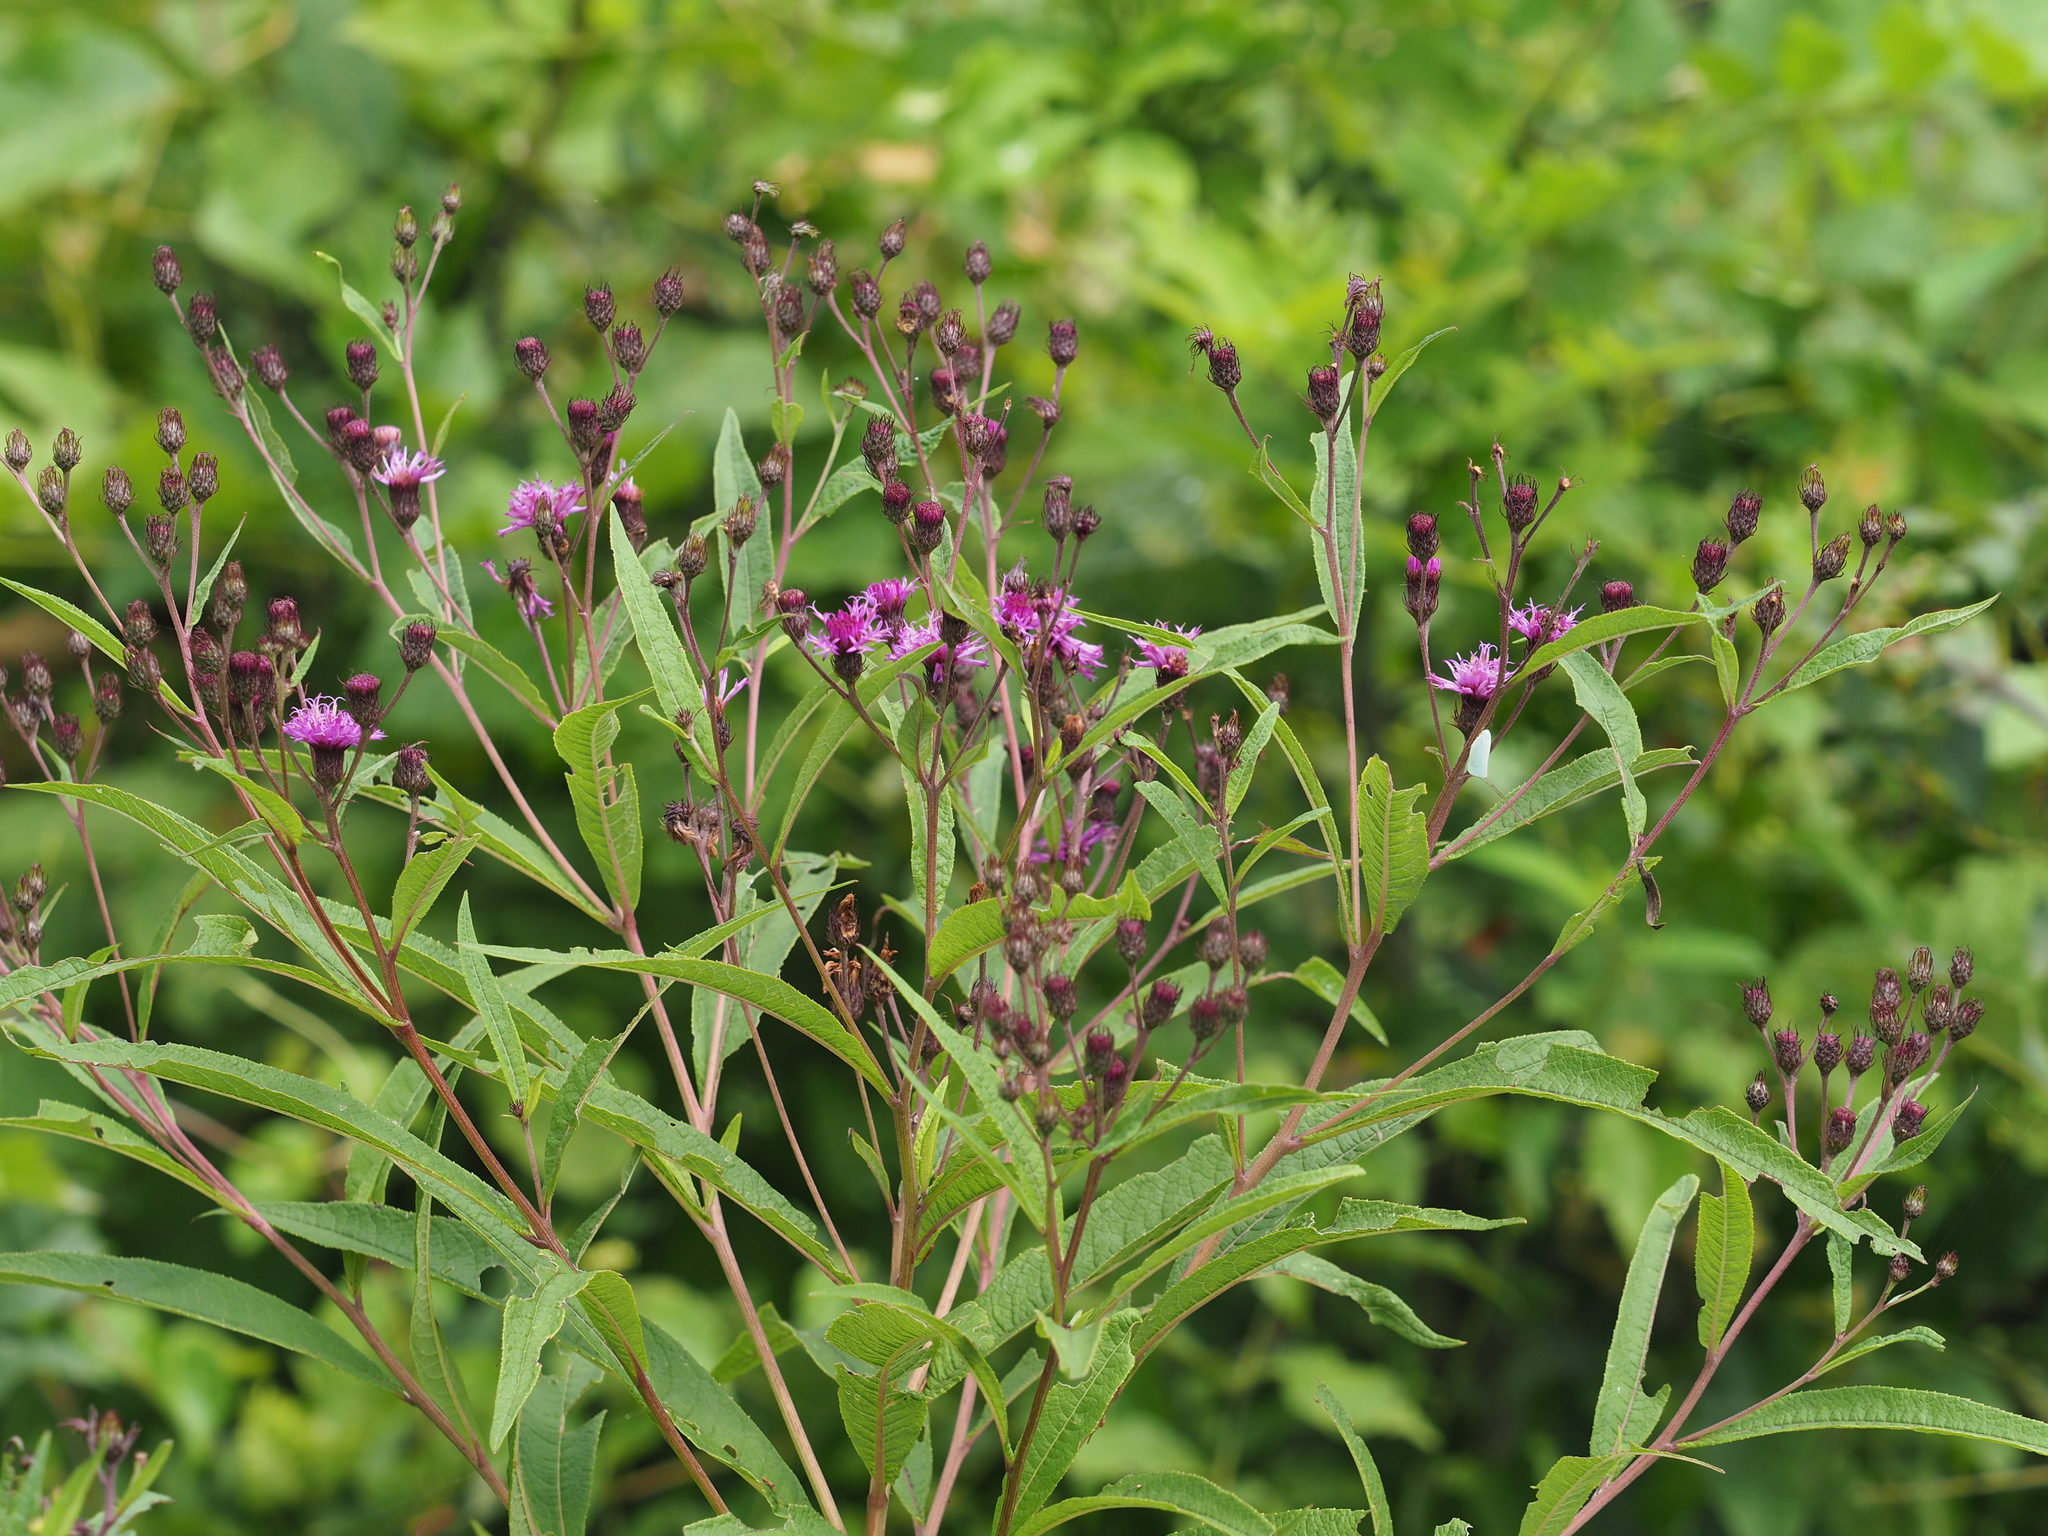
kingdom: Plantae
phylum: Tracheophyta
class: Magnoliopsida
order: Asterales
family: Asteraceae
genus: Vernonia
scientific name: Vernonia noveboracensis
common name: New york ironweed
